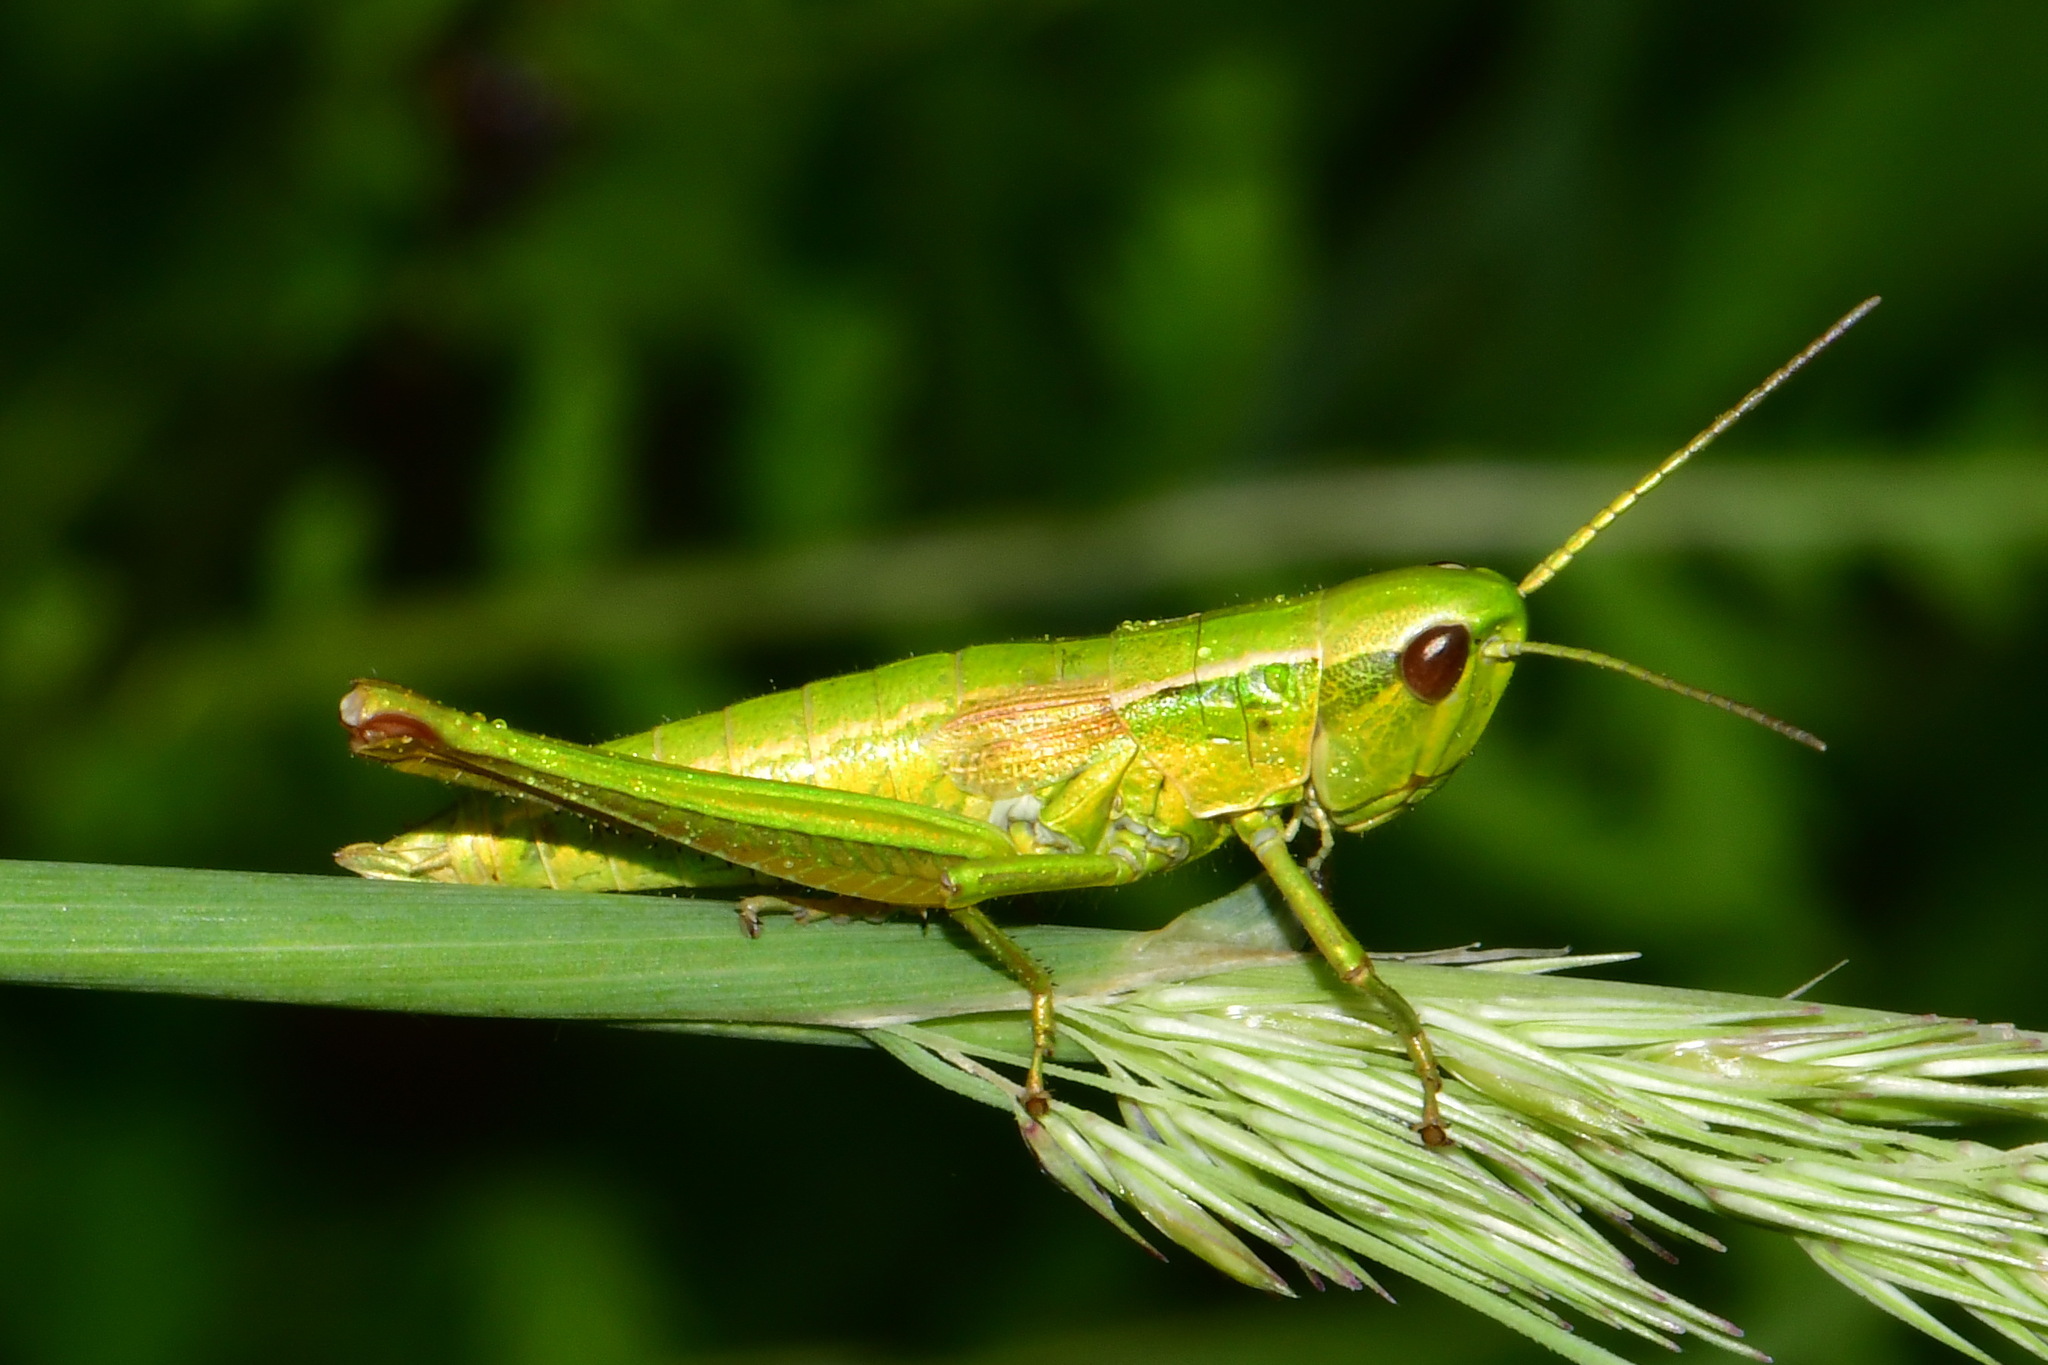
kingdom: Animalia
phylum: Arthropoda
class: Insecta
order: Orthoptera
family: Acrididae
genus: Euthystira
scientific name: Euthystira brachyptera
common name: Small gold grasshopper
